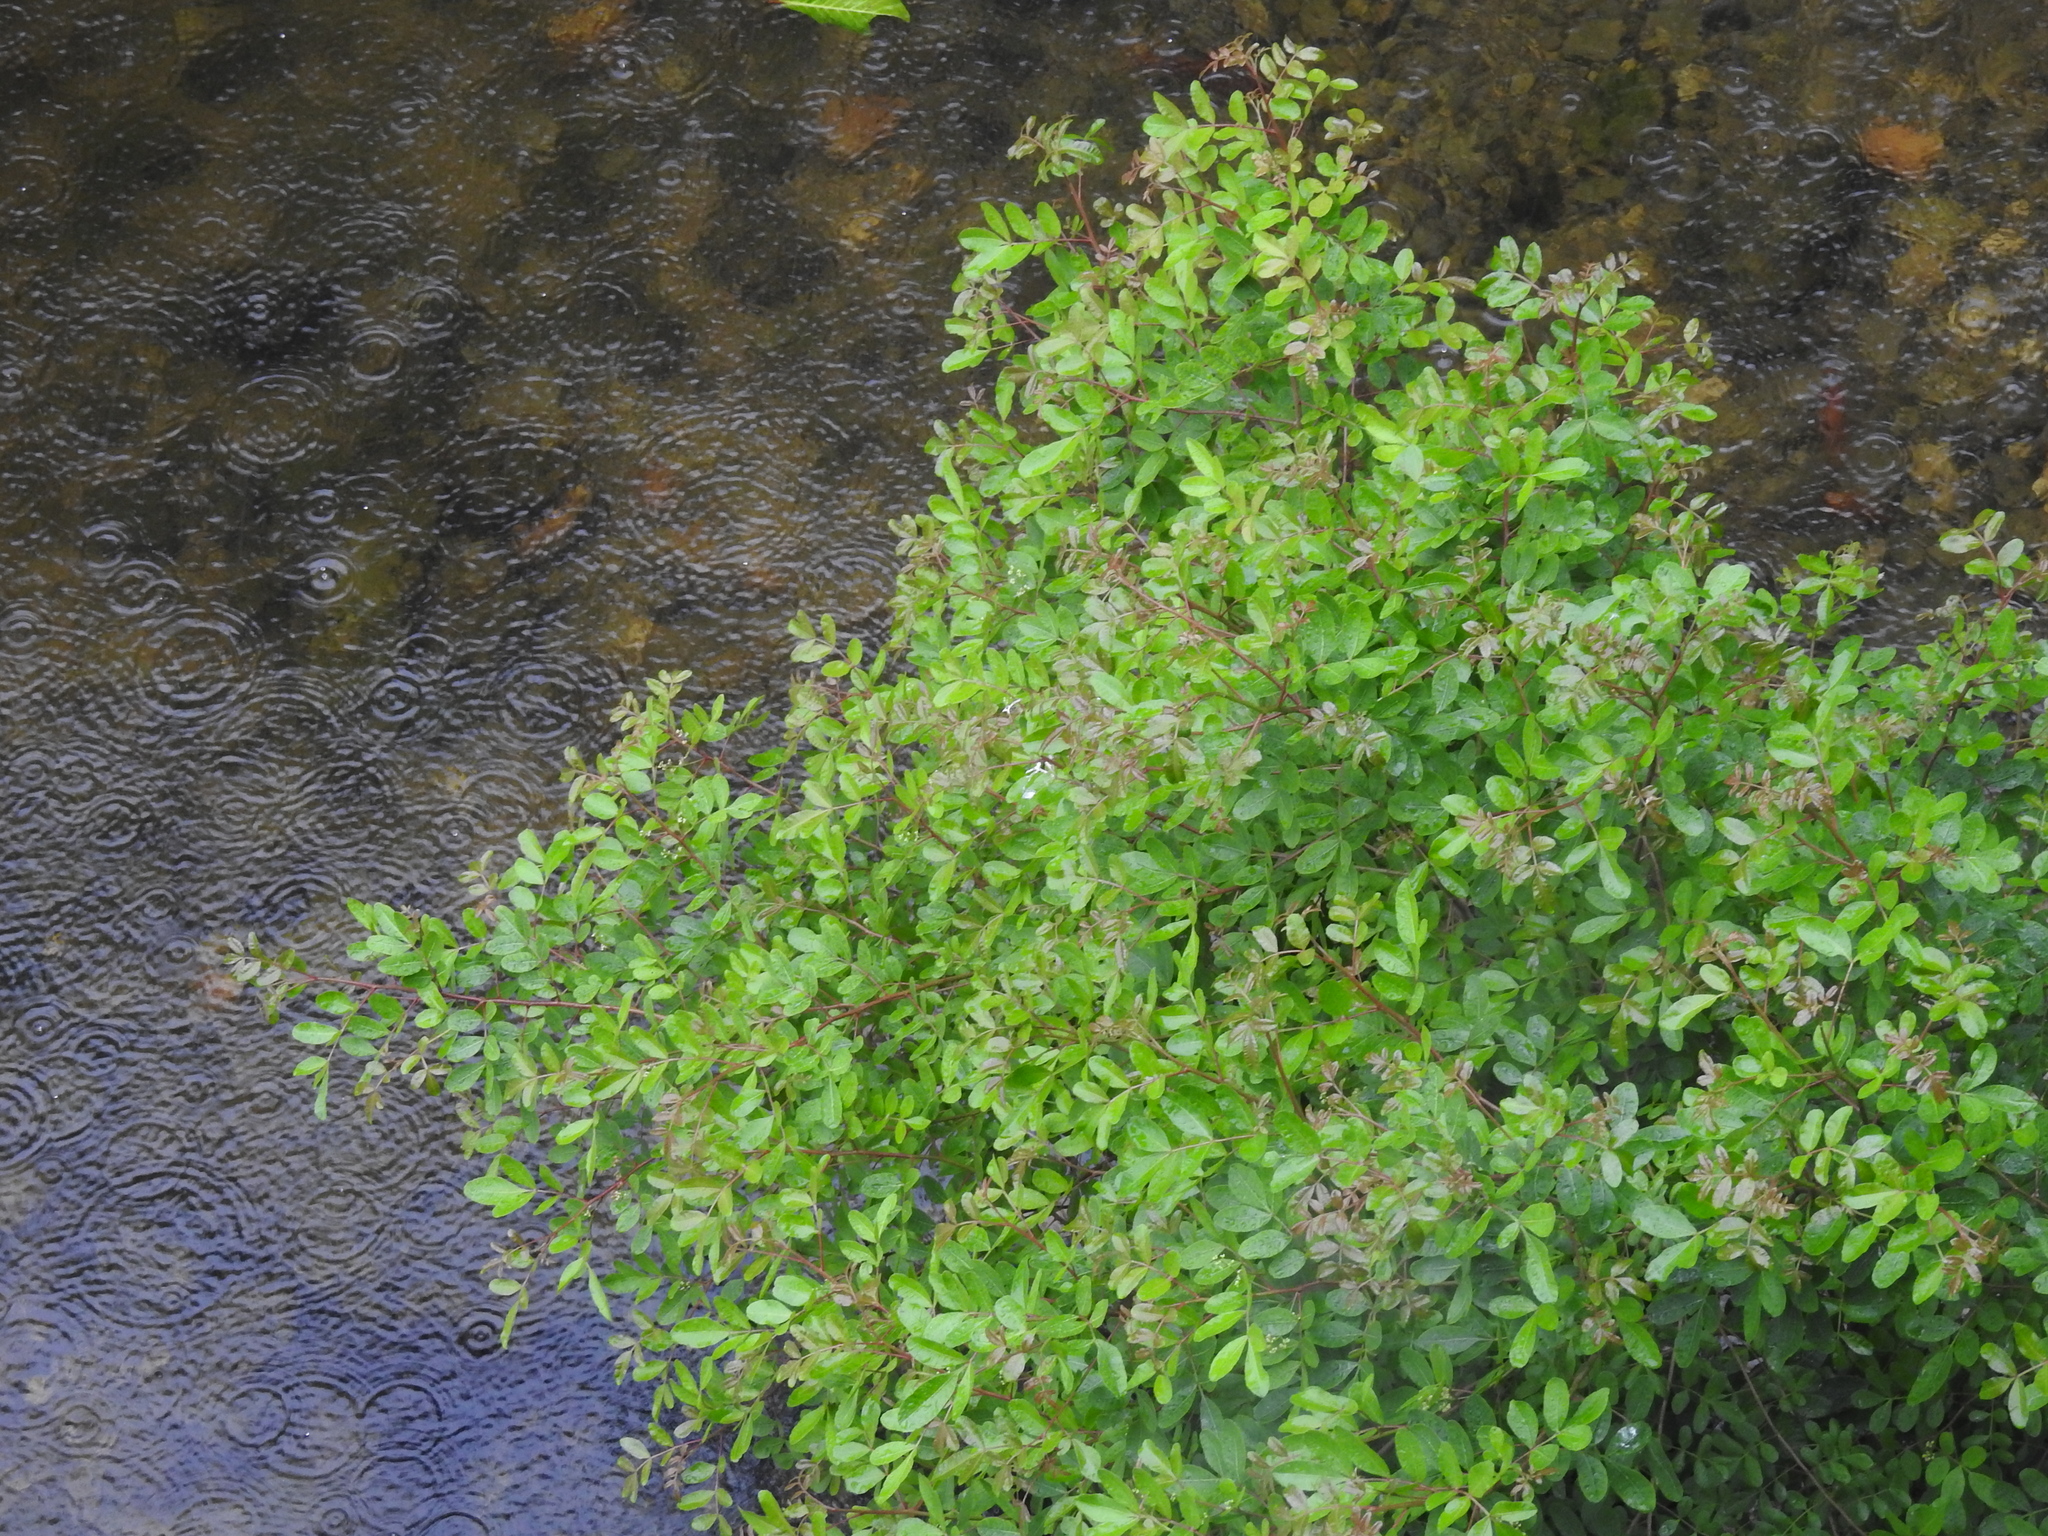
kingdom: Plantae
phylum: Tracheophyta
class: Magnoliopsida
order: Sapindales
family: Anacardiaceae
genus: Schinus
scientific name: Schinus terebinthifolia
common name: Brazilian peppertree
